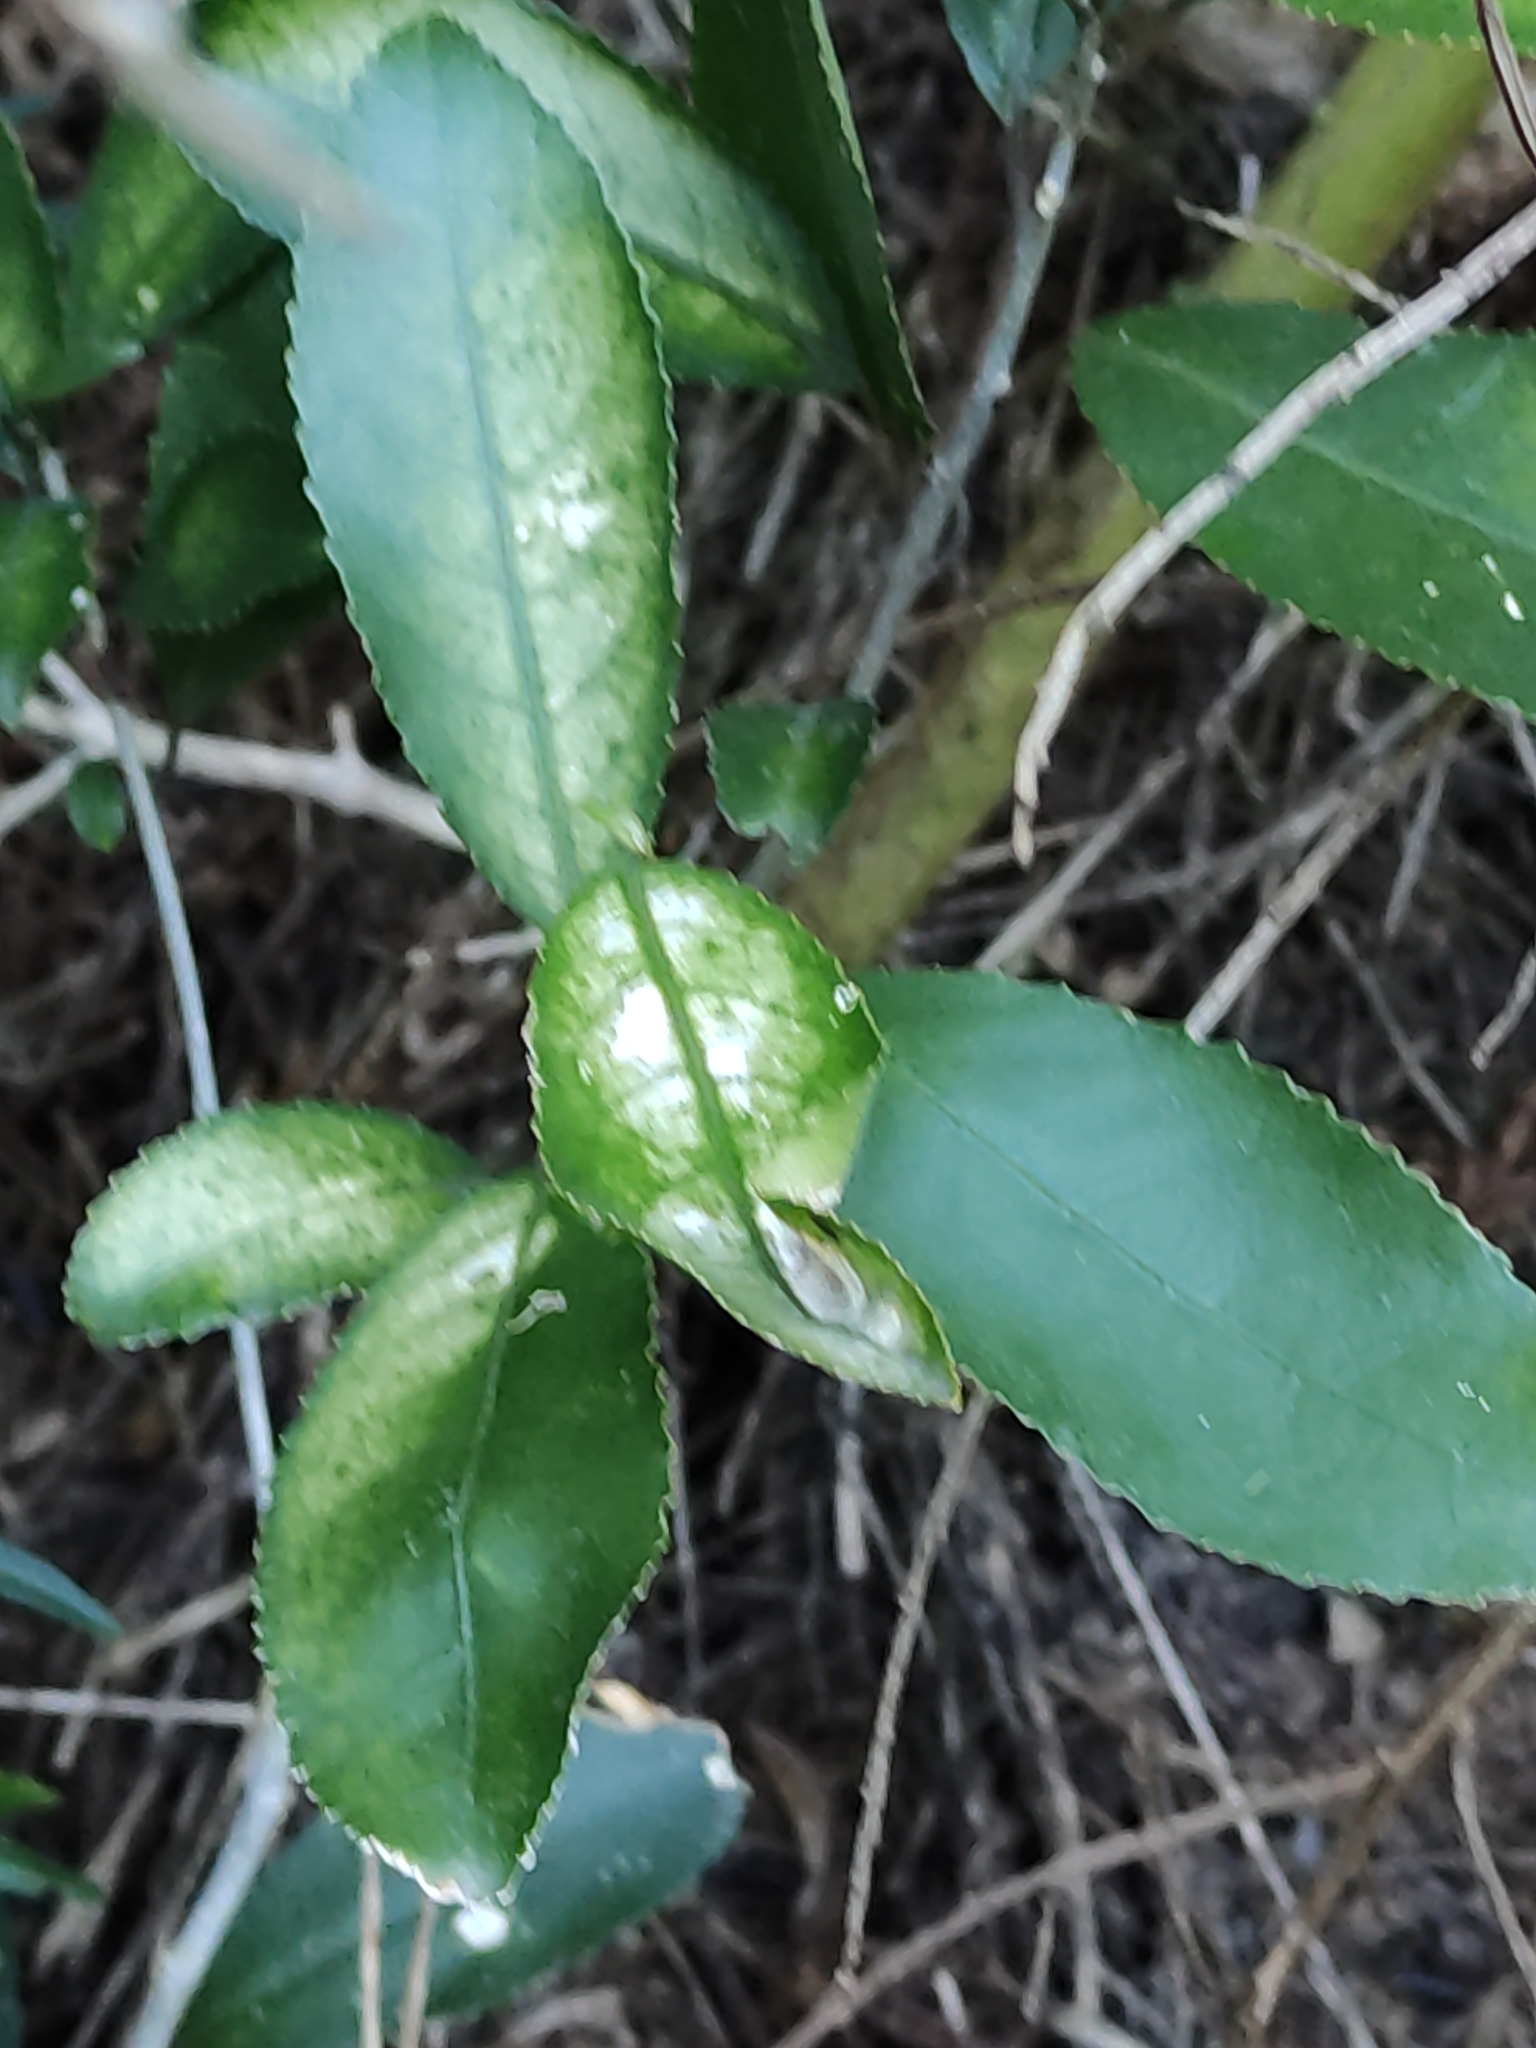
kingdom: Plantae
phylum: Tracheophyta
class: Magnoliopsida
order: Malpighiales
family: Violaceae
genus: Melicytus
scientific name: Melicytus ramiflorus
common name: Mahoe
